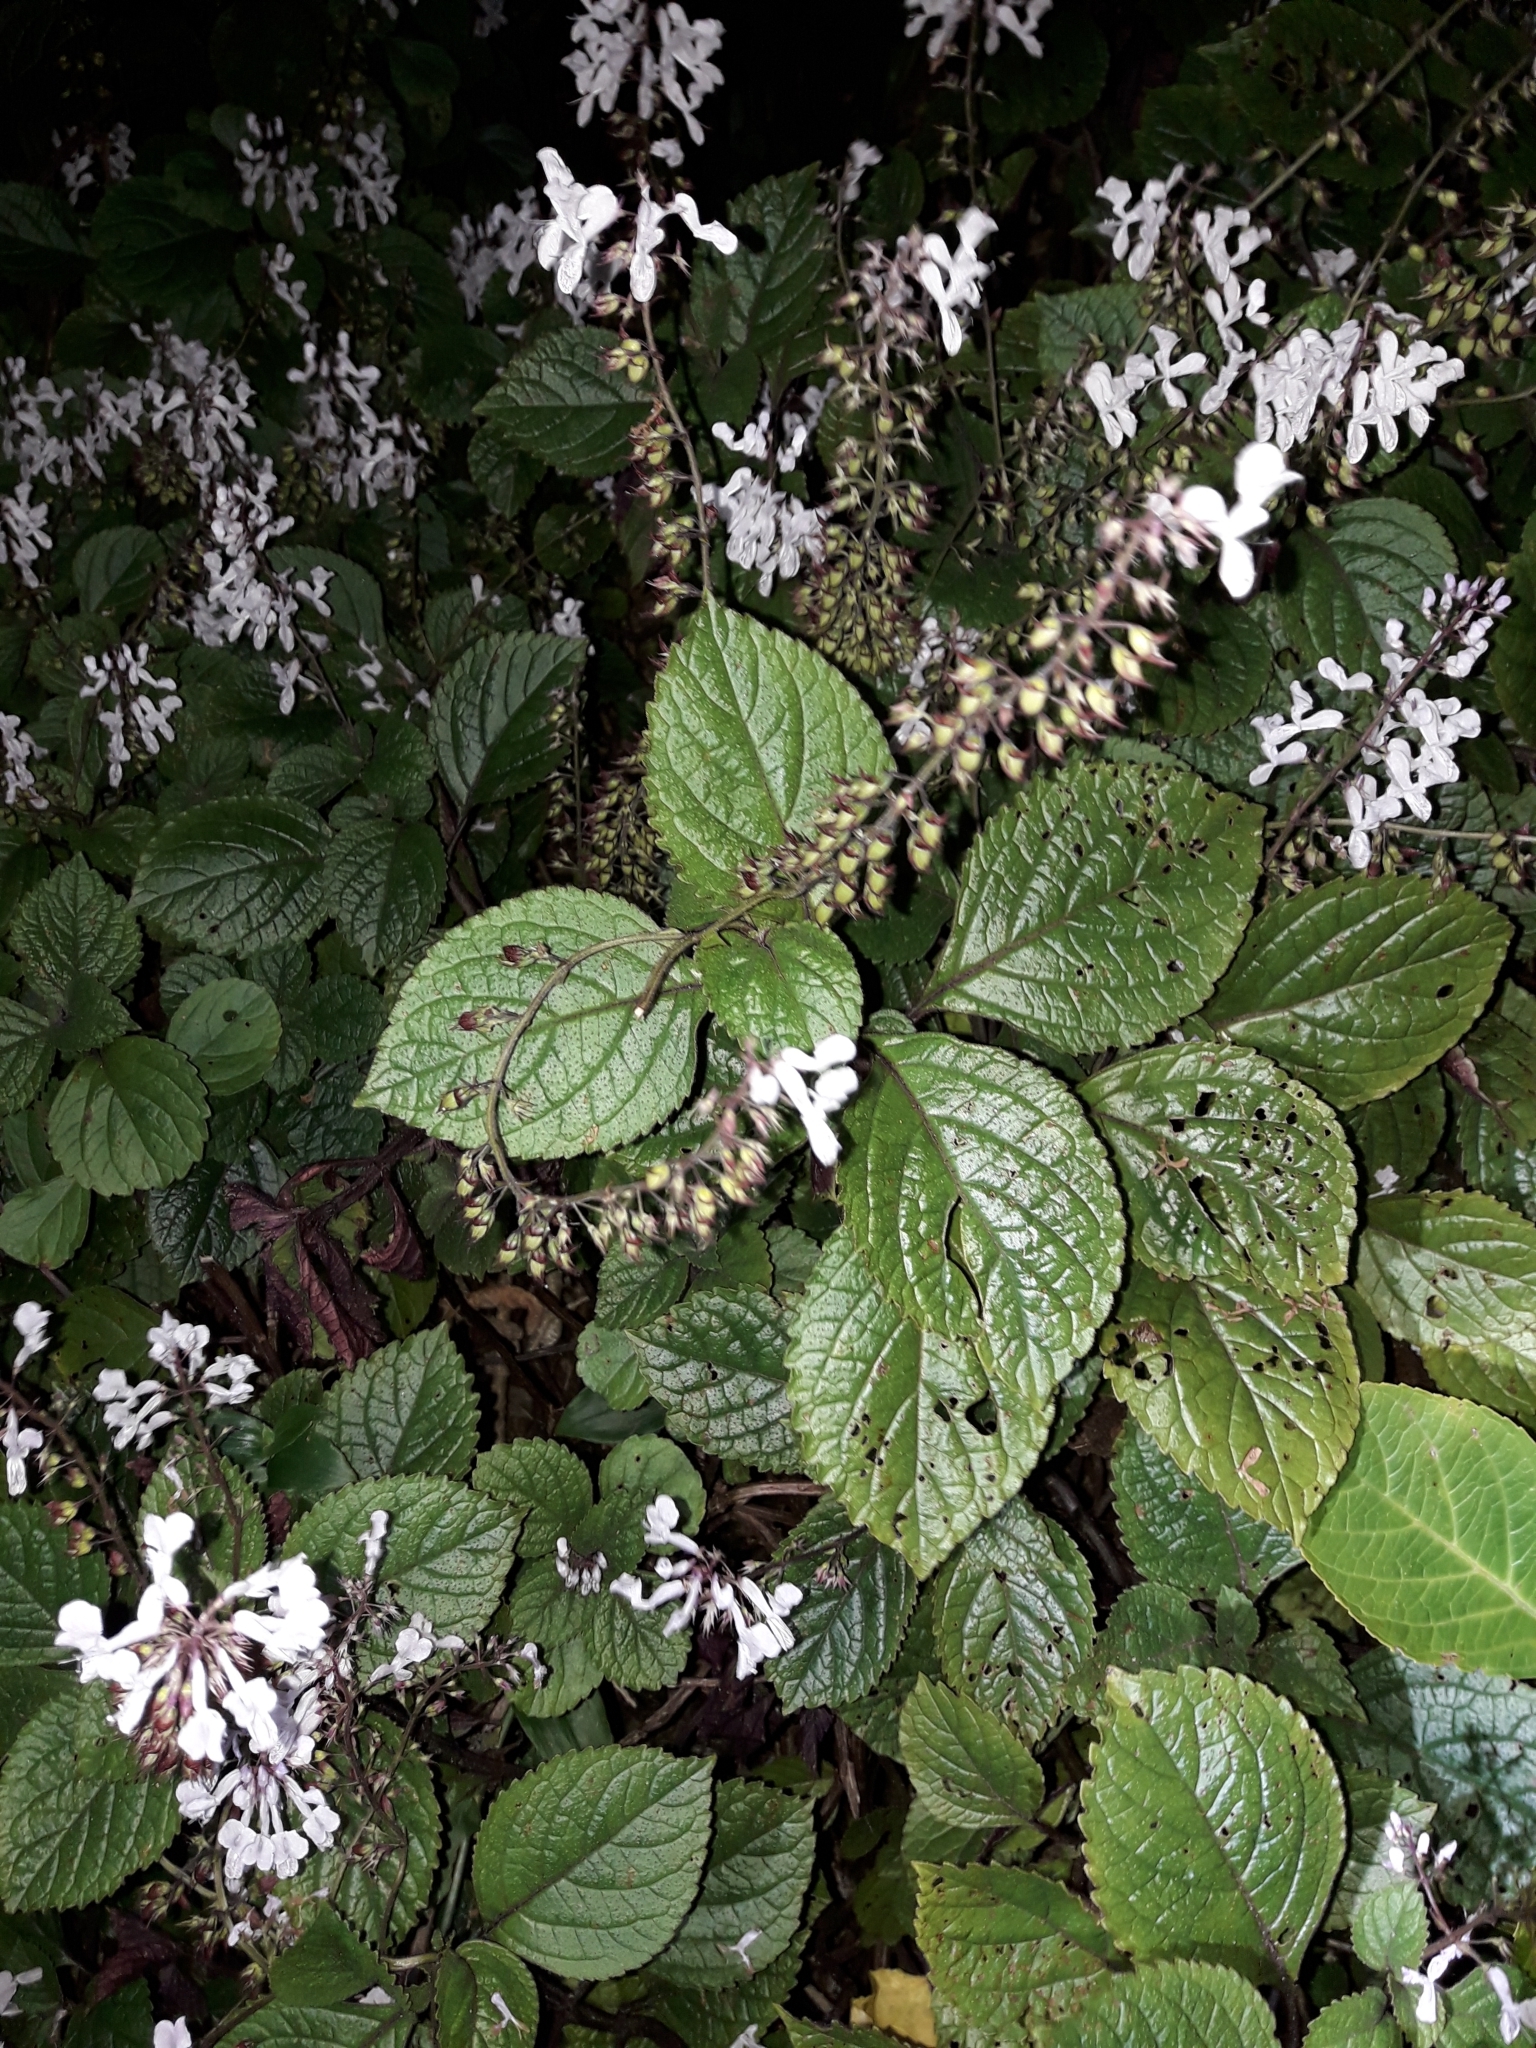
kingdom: Plantae
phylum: Tracheophyta
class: Magnoliopsida
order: Lamiales
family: Lamiaceae
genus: Plectranthus
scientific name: Plectranthus ciliatus
